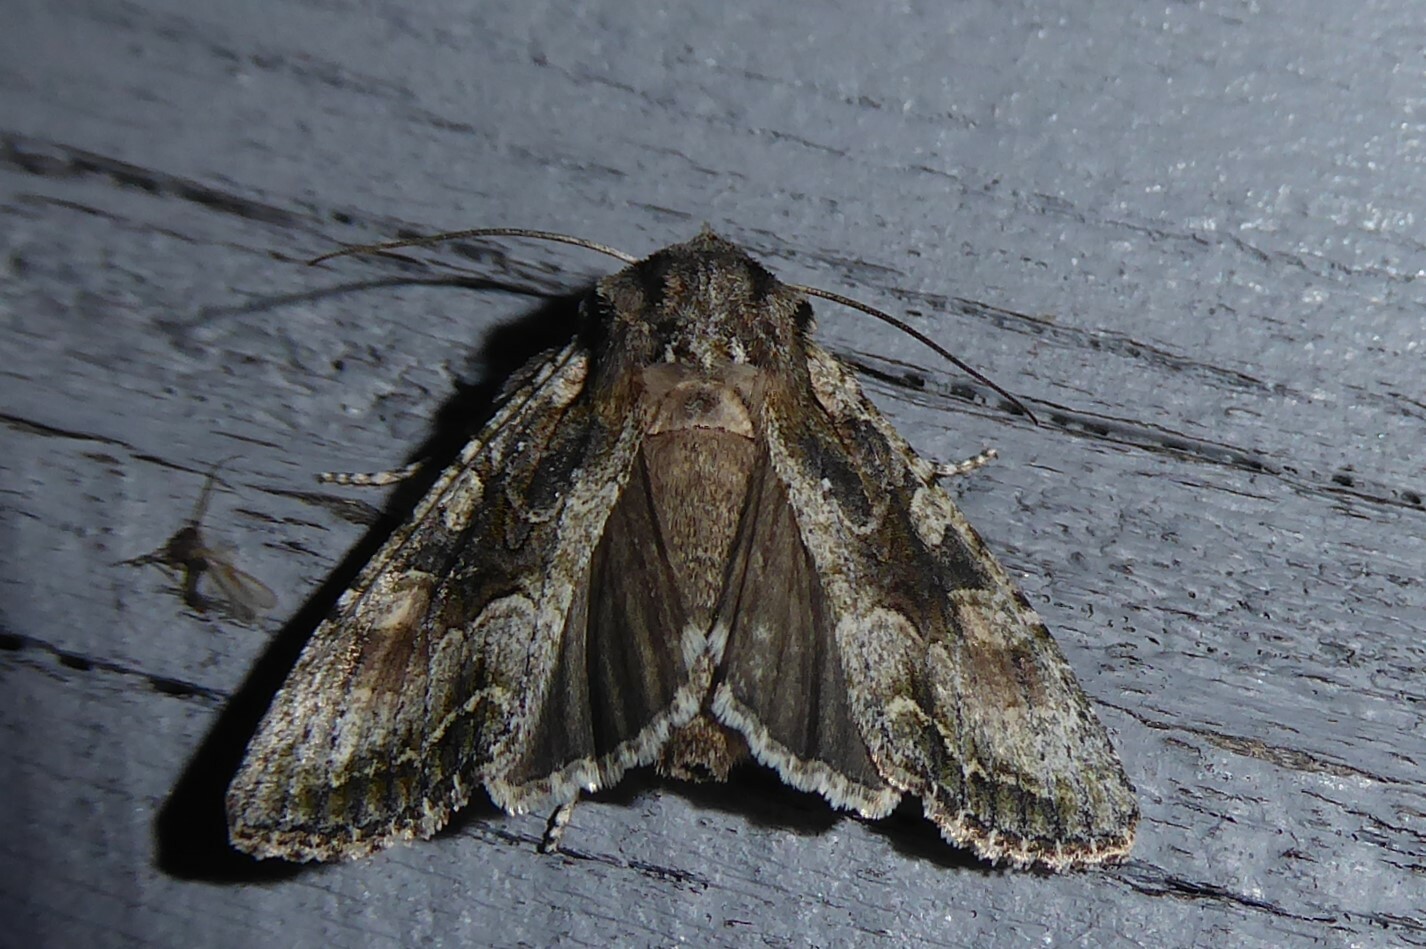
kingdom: Animalia
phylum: Arthropoda
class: Insecta
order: Lepidoptera
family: Noctuidae
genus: Ichneutica
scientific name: Ichneutica mutans
